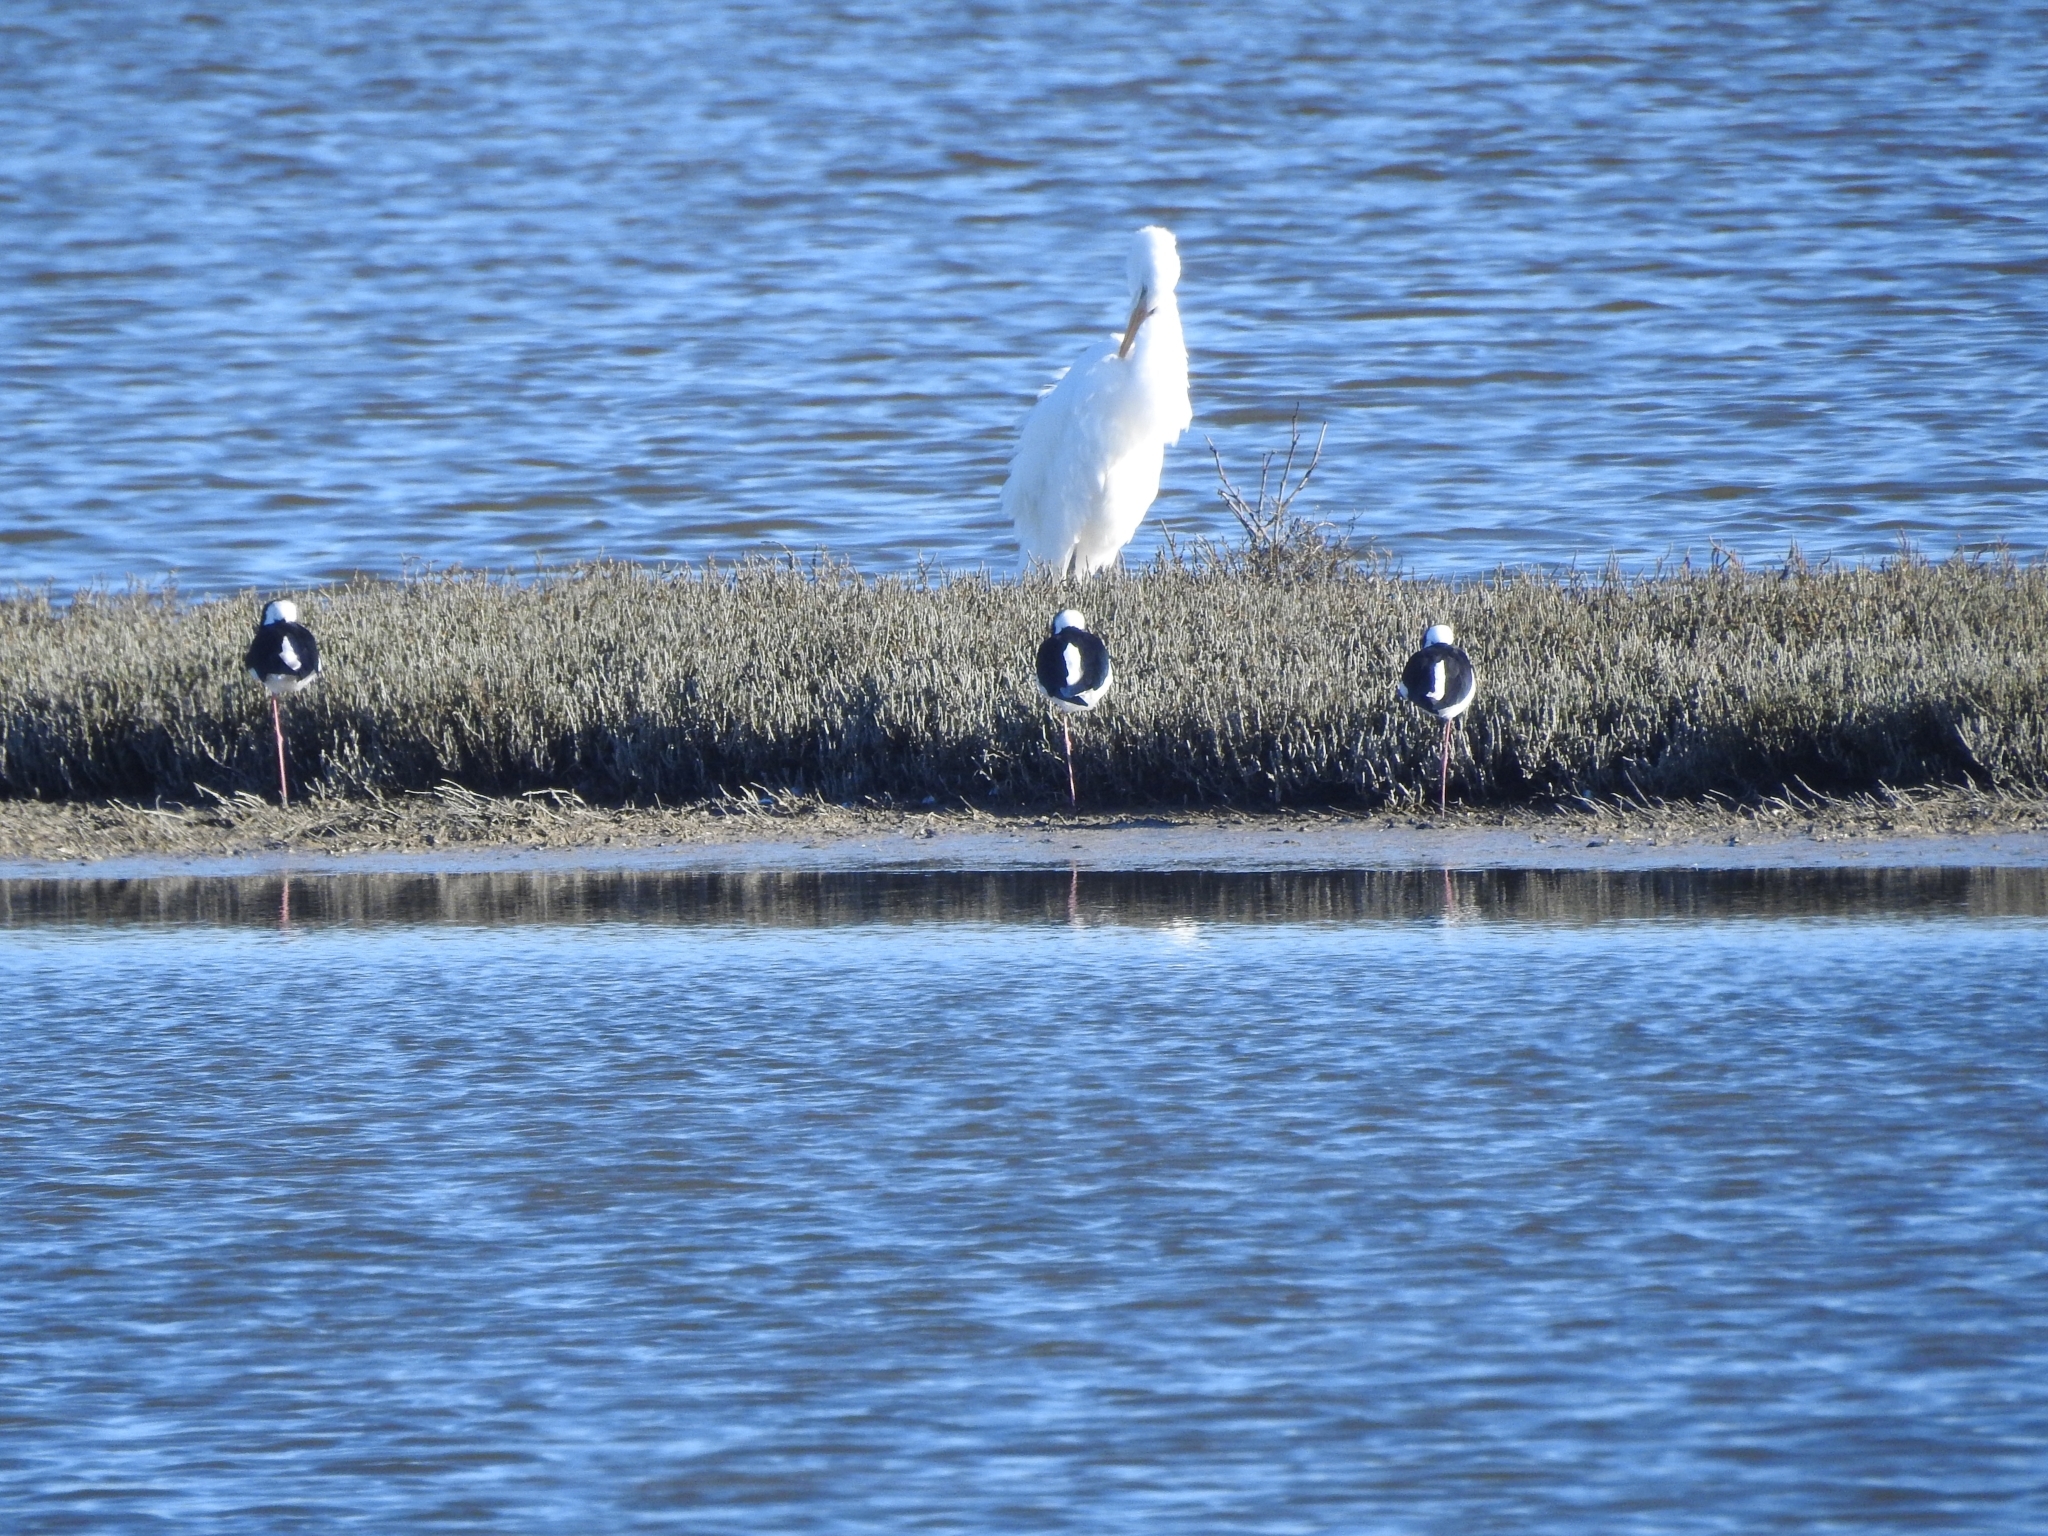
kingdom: Animalia
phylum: Chordata
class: Aves
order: Pelecaniformes
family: Ardeidae
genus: Ardea
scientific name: Ardea modesta
